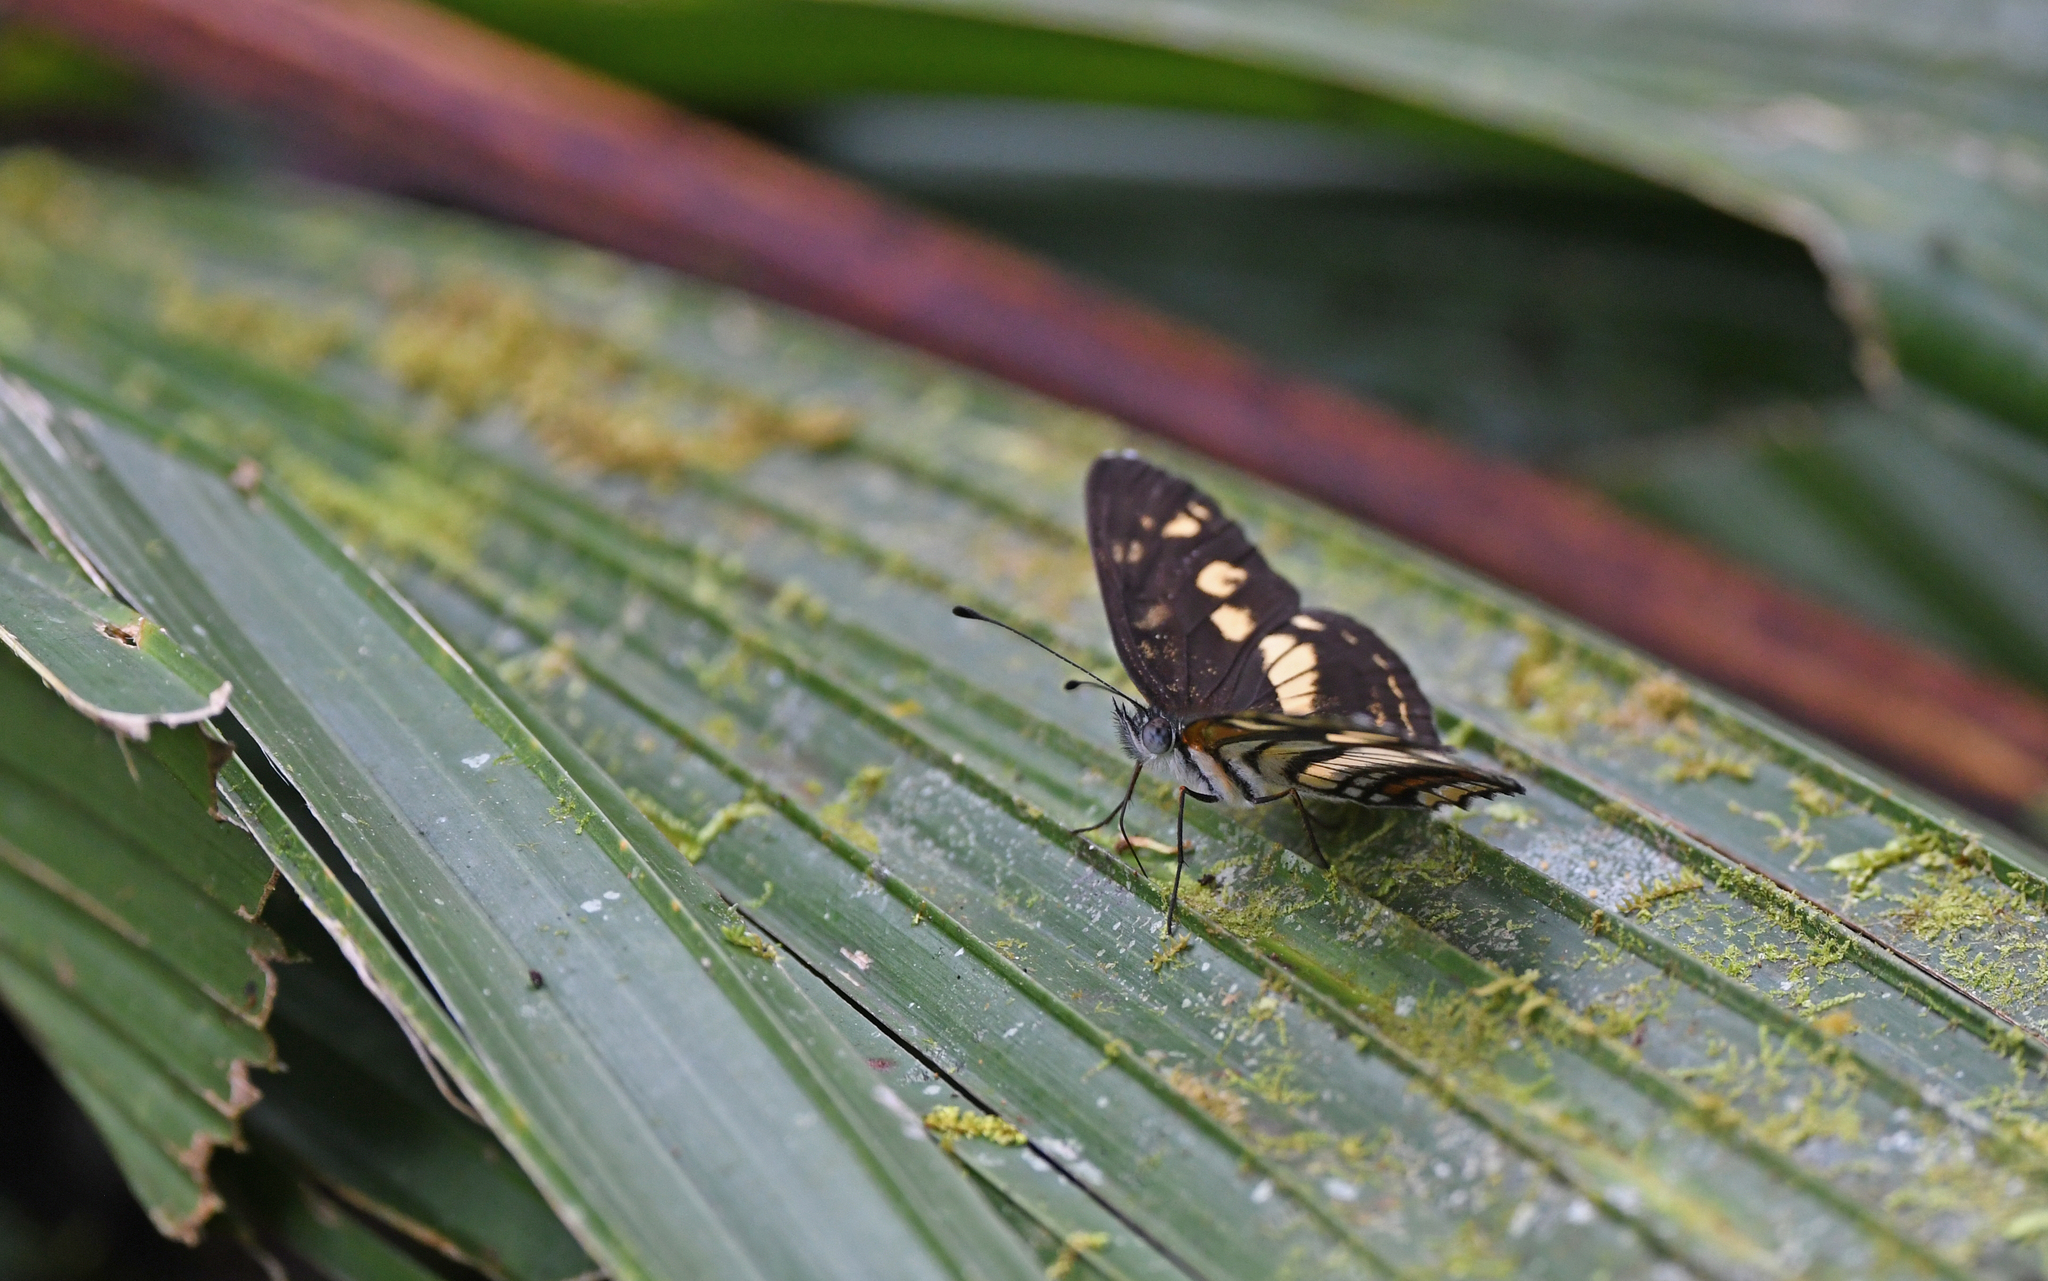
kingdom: Animalia
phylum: Arthropoda
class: Insecta
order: Lepidoptera
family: Nymphalidae
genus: Eresia
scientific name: Eresia polina
